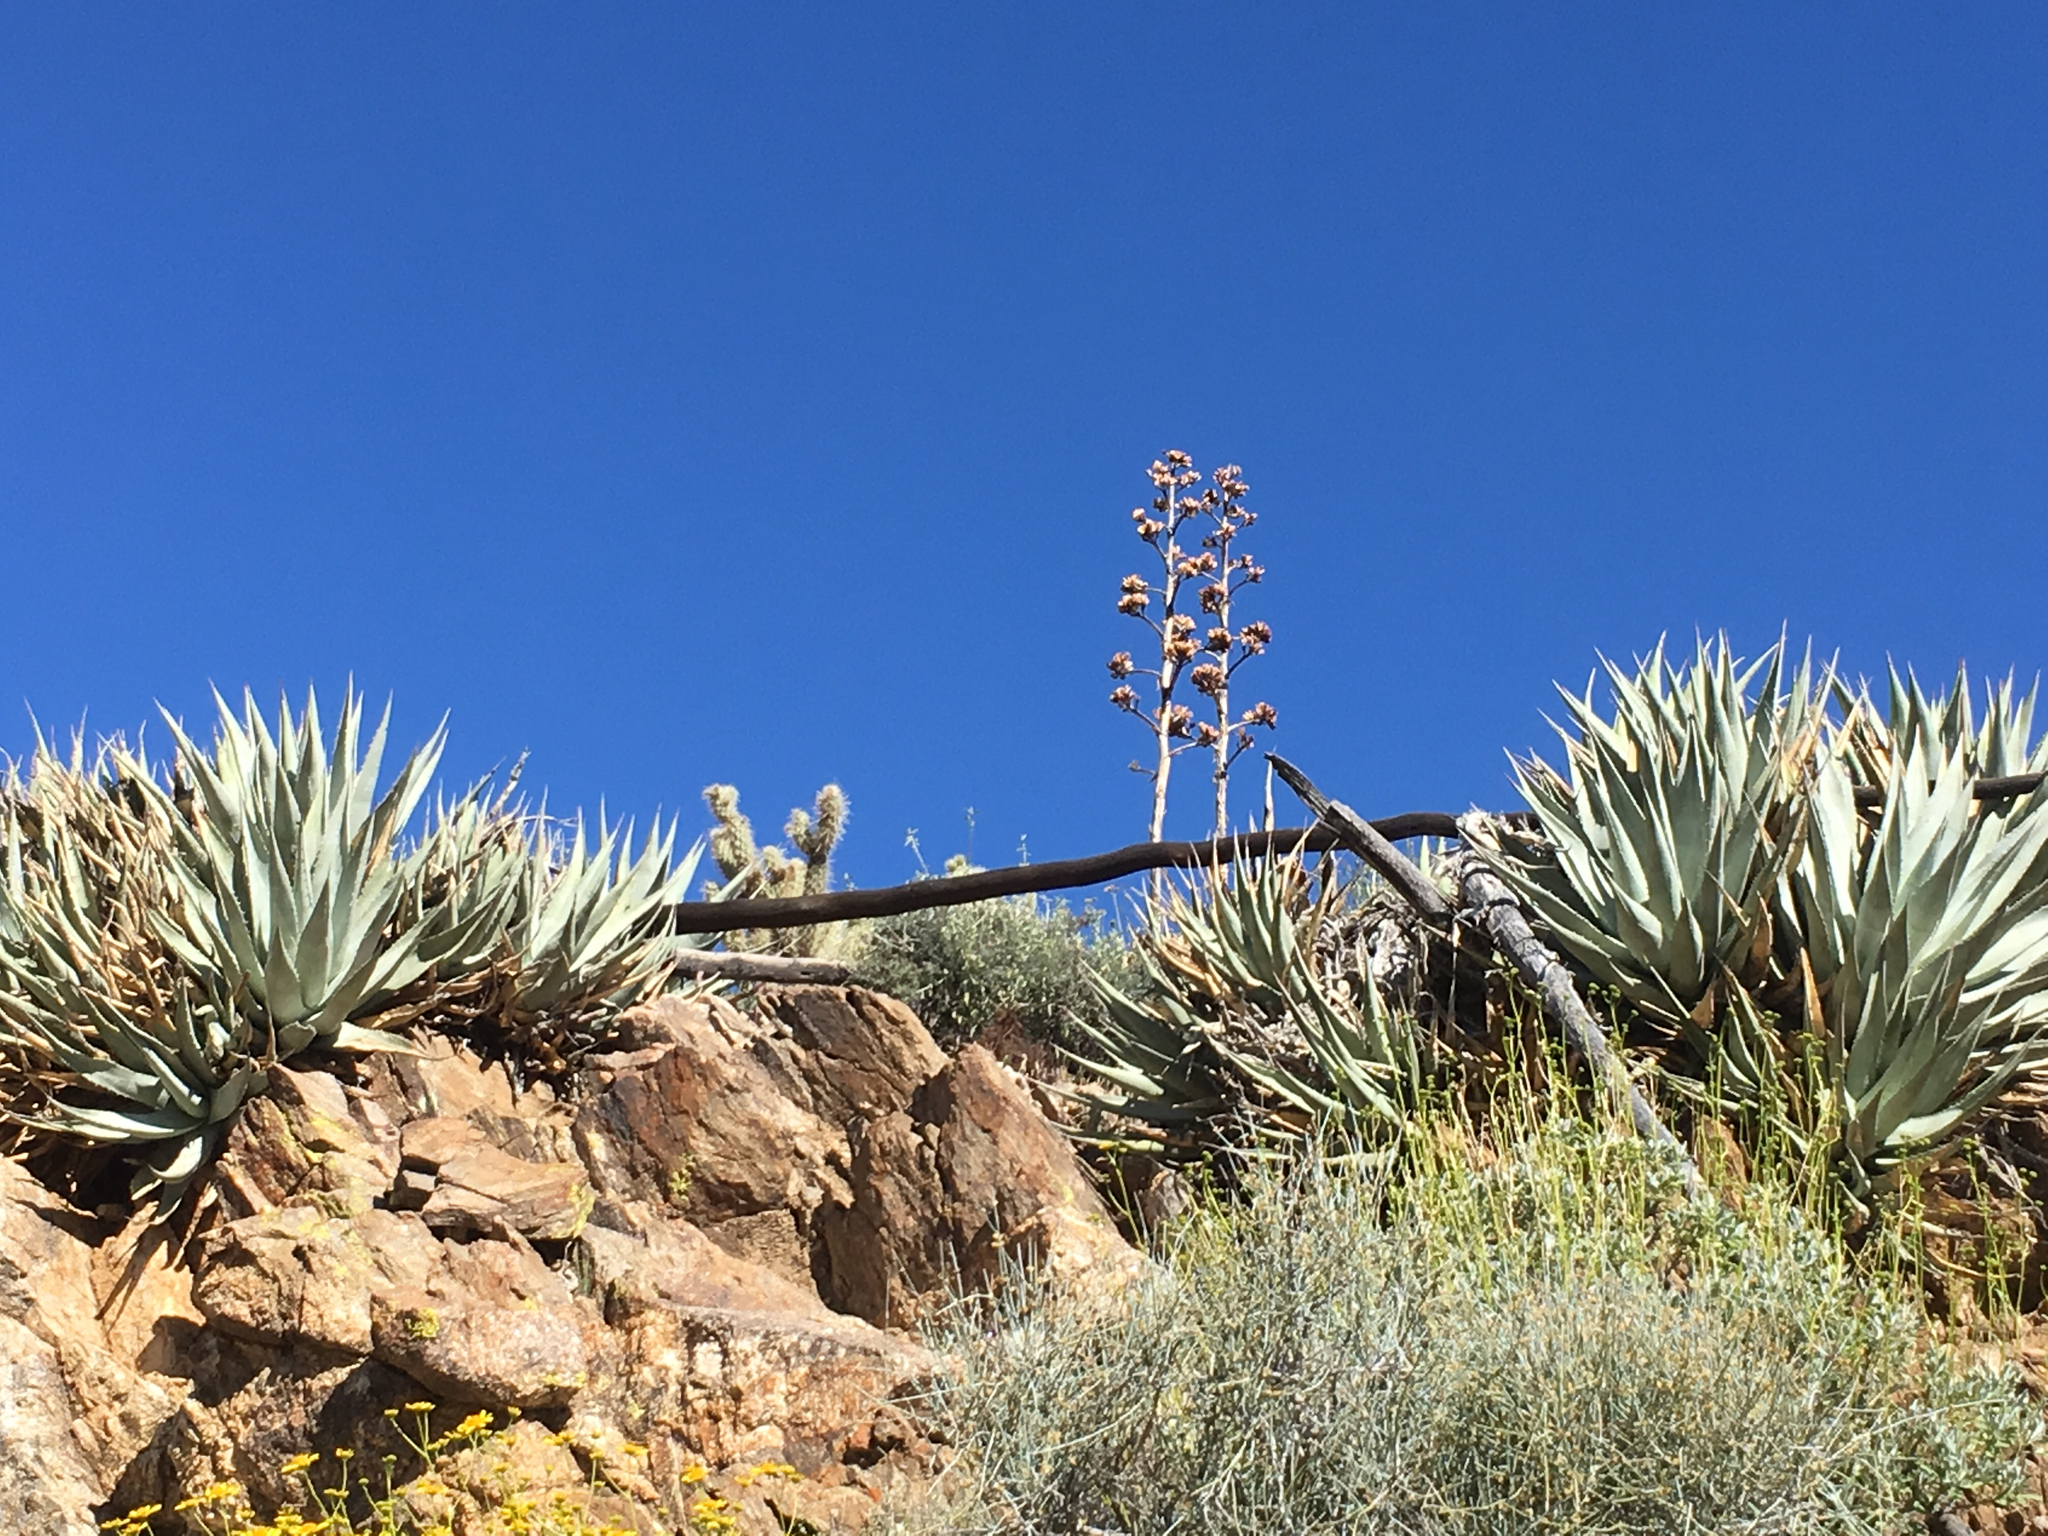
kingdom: Plantae
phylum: Tracheophyta
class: Liliopsida
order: Asparagales
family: Asparagaceae
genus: Agave
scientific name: Agave deserti
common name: Desert agave
